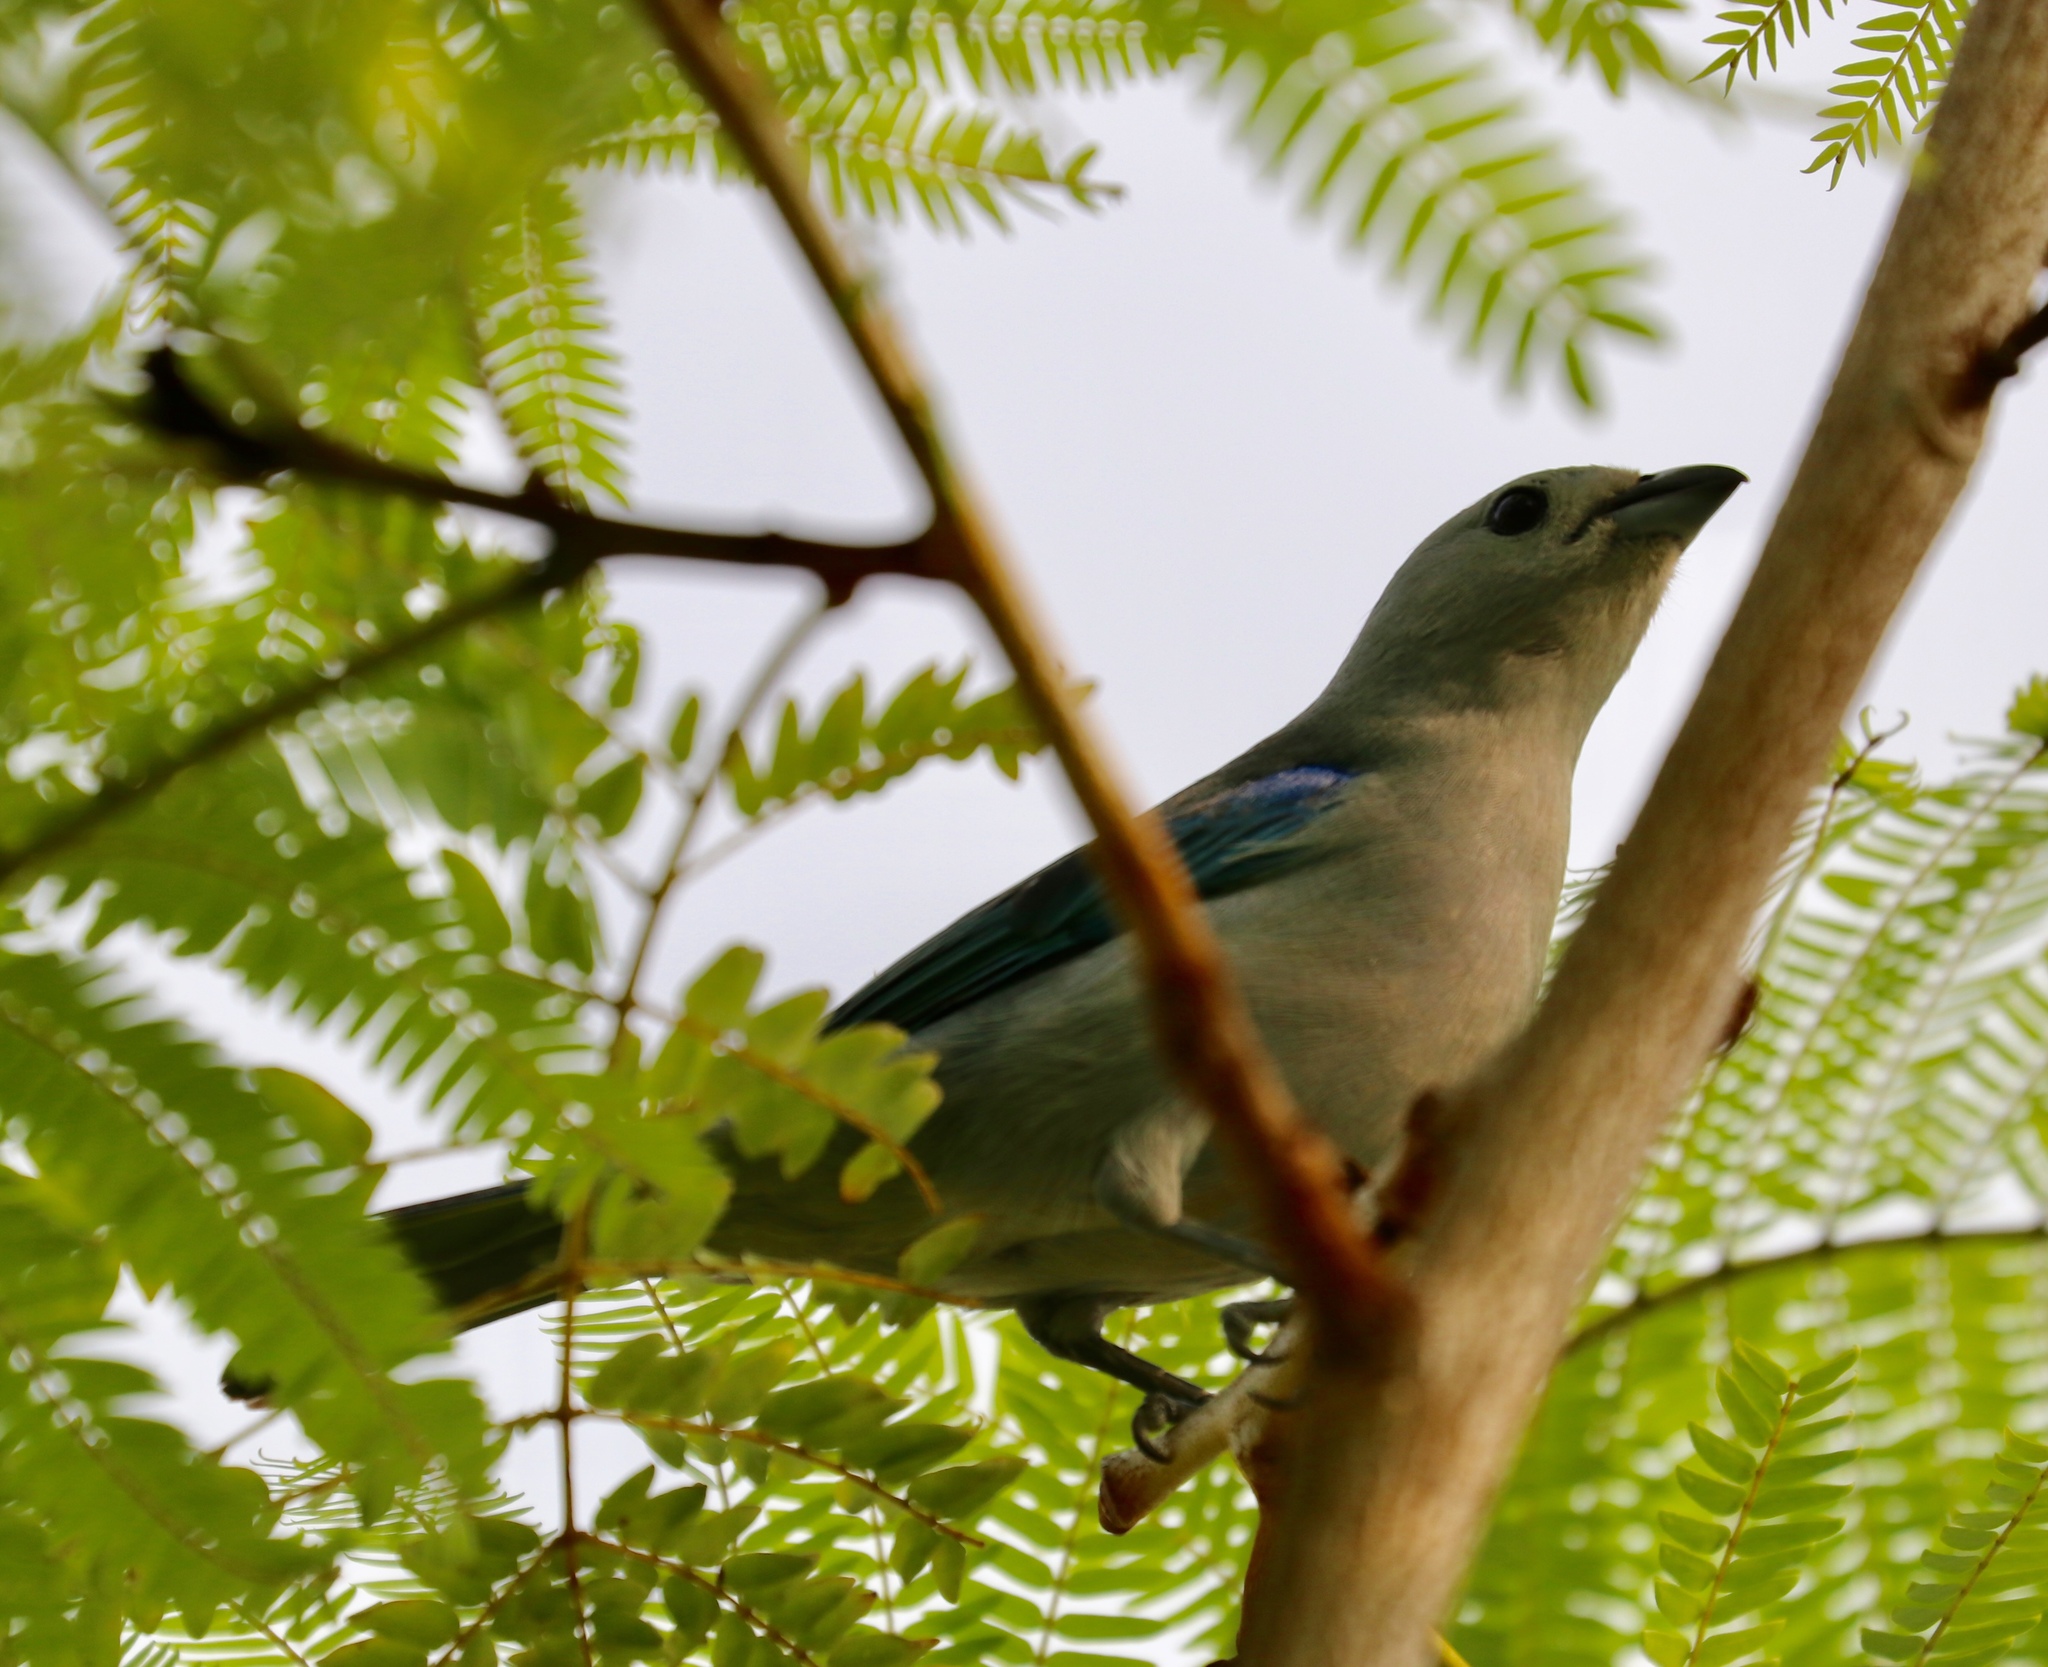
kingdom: Animalia
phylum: Chordata
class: Aves
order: Passeriformes
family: Thraupidae
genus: Thraupis
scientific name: Thraupis episcopus
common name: Blue-grey tanager
